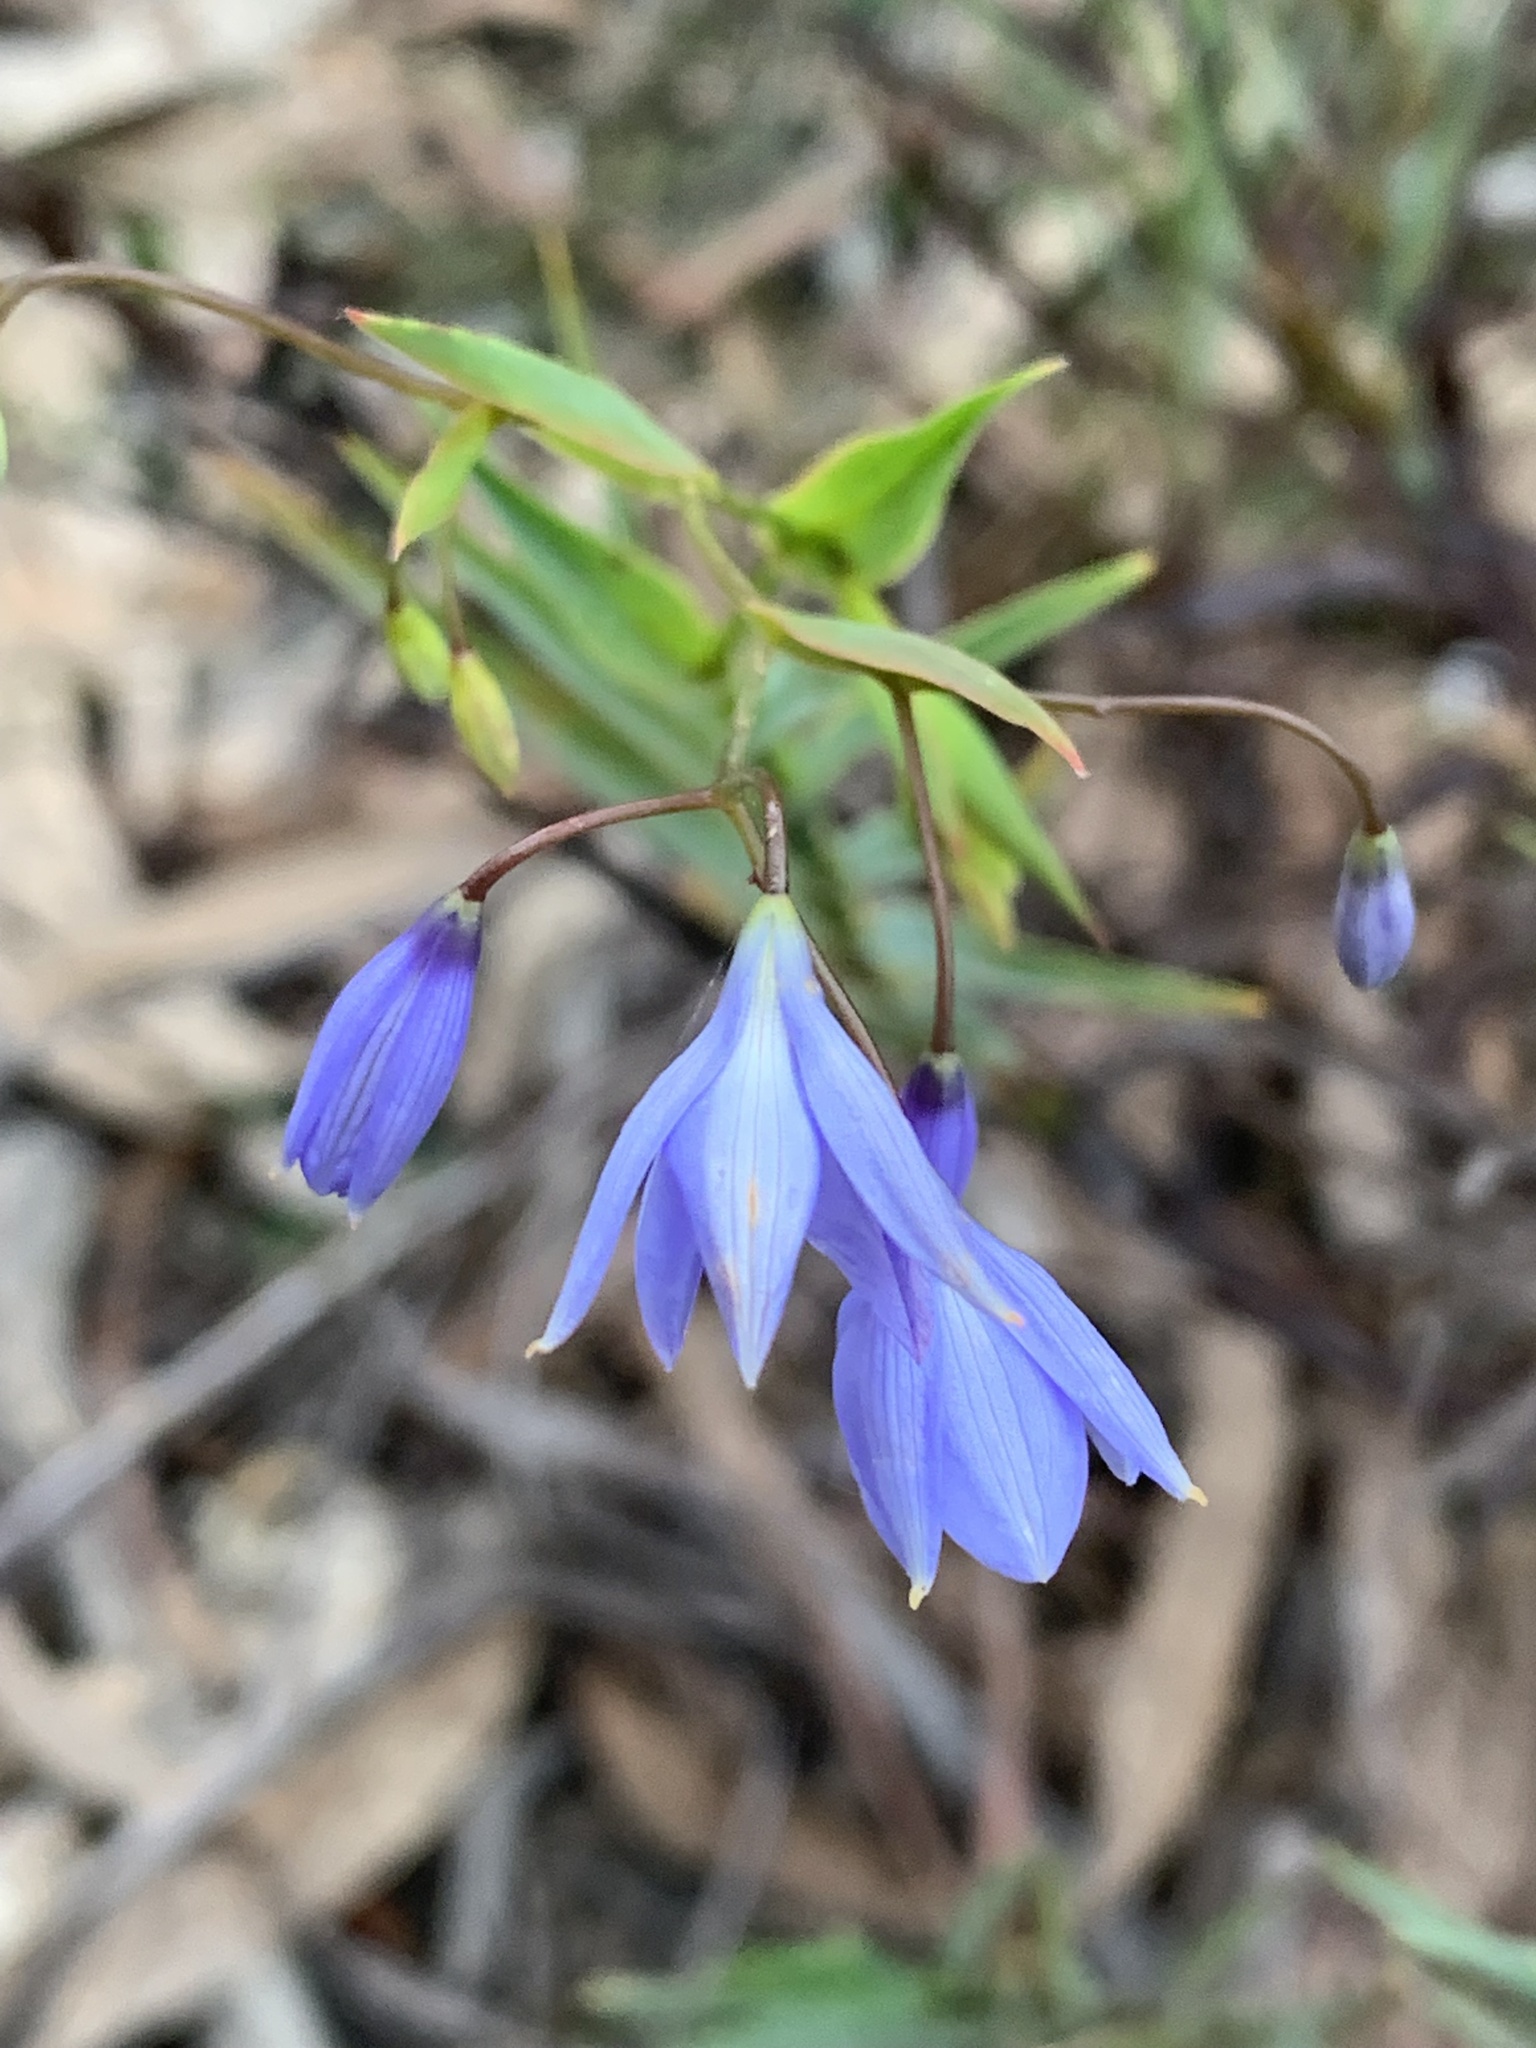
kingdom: Plantae
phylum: Tracheophyta
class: Liliopsida
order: Asparagales
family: Asphodelaceae
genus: Stypandra
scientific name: Stypandra glauca
